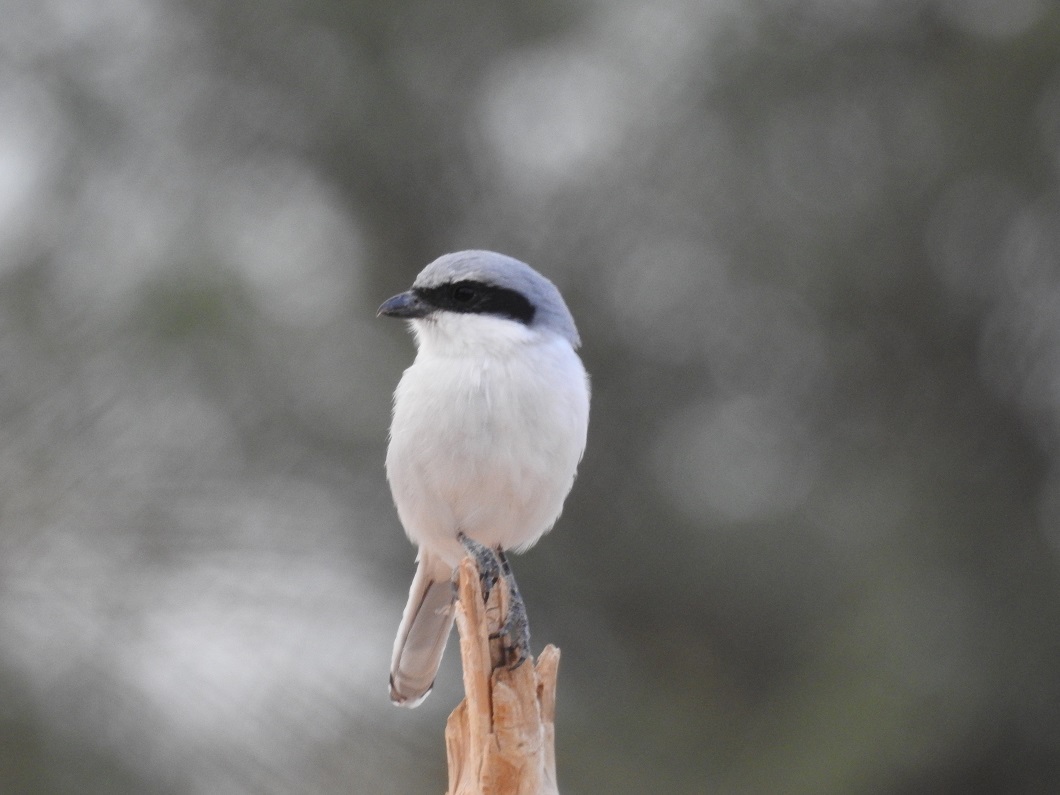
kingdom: Animalia
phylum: Chordata
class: Aves
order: Passeriformes
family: Laniidae
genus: Lanius
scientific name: Lanius excubitor
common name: Great grey shrike
